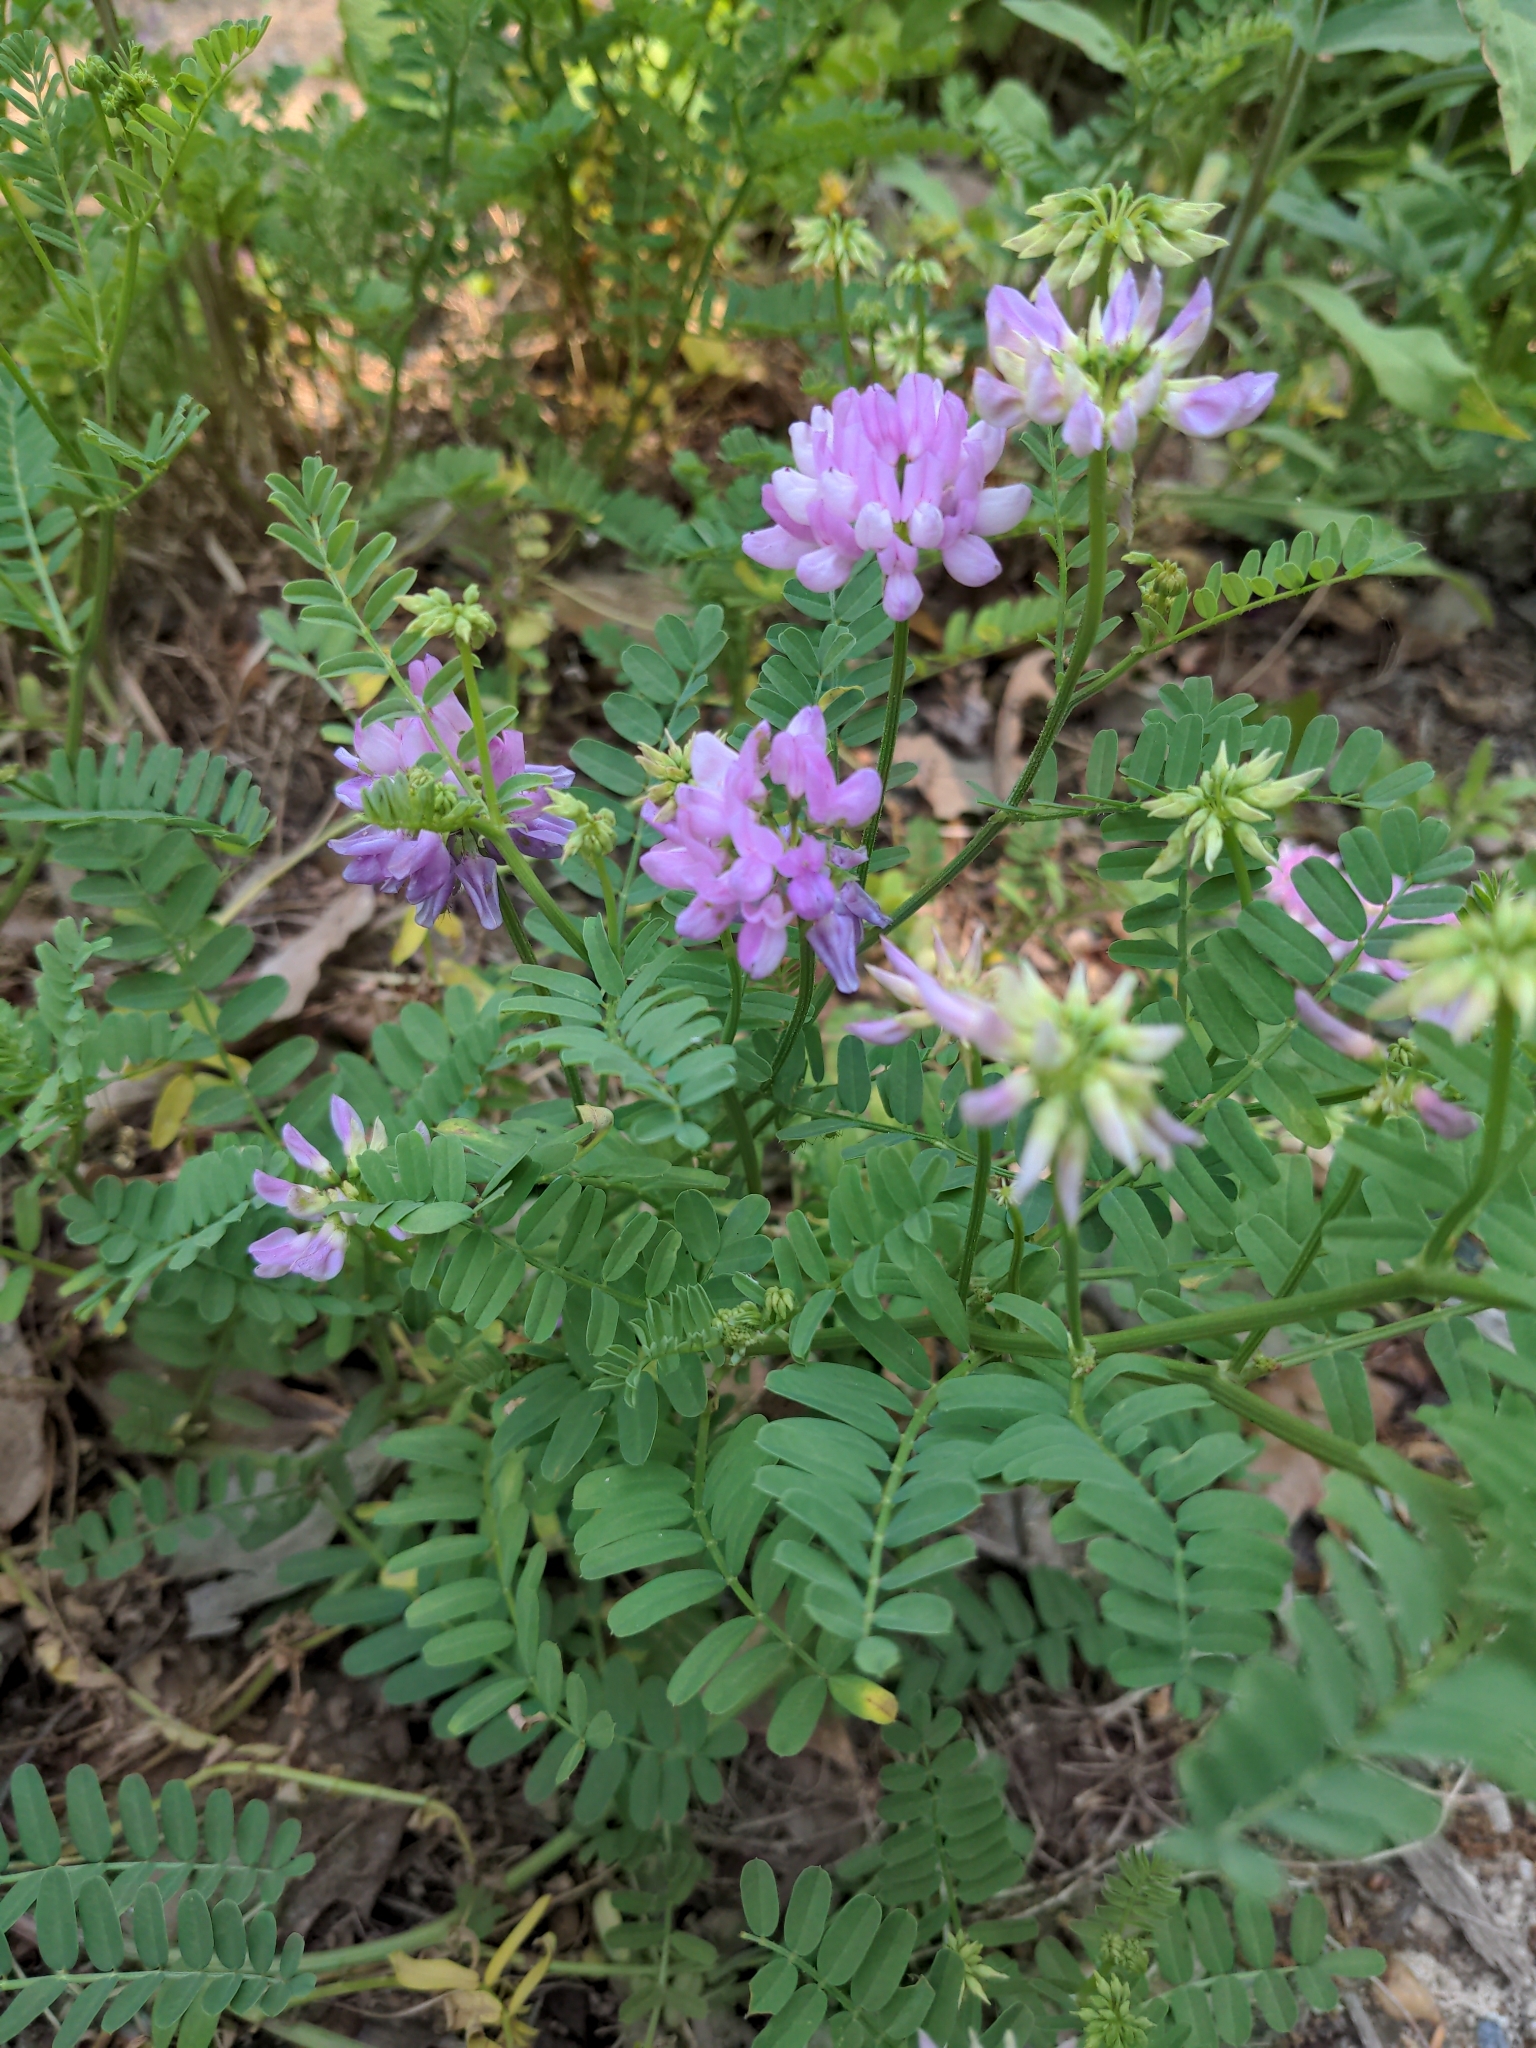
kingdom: Plantae
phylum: Tracheophyta
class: Magnoliopsida
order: Fabales
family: Fabaceae
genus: Coronilla
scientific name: Coronilla varia
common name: Crownvetch
